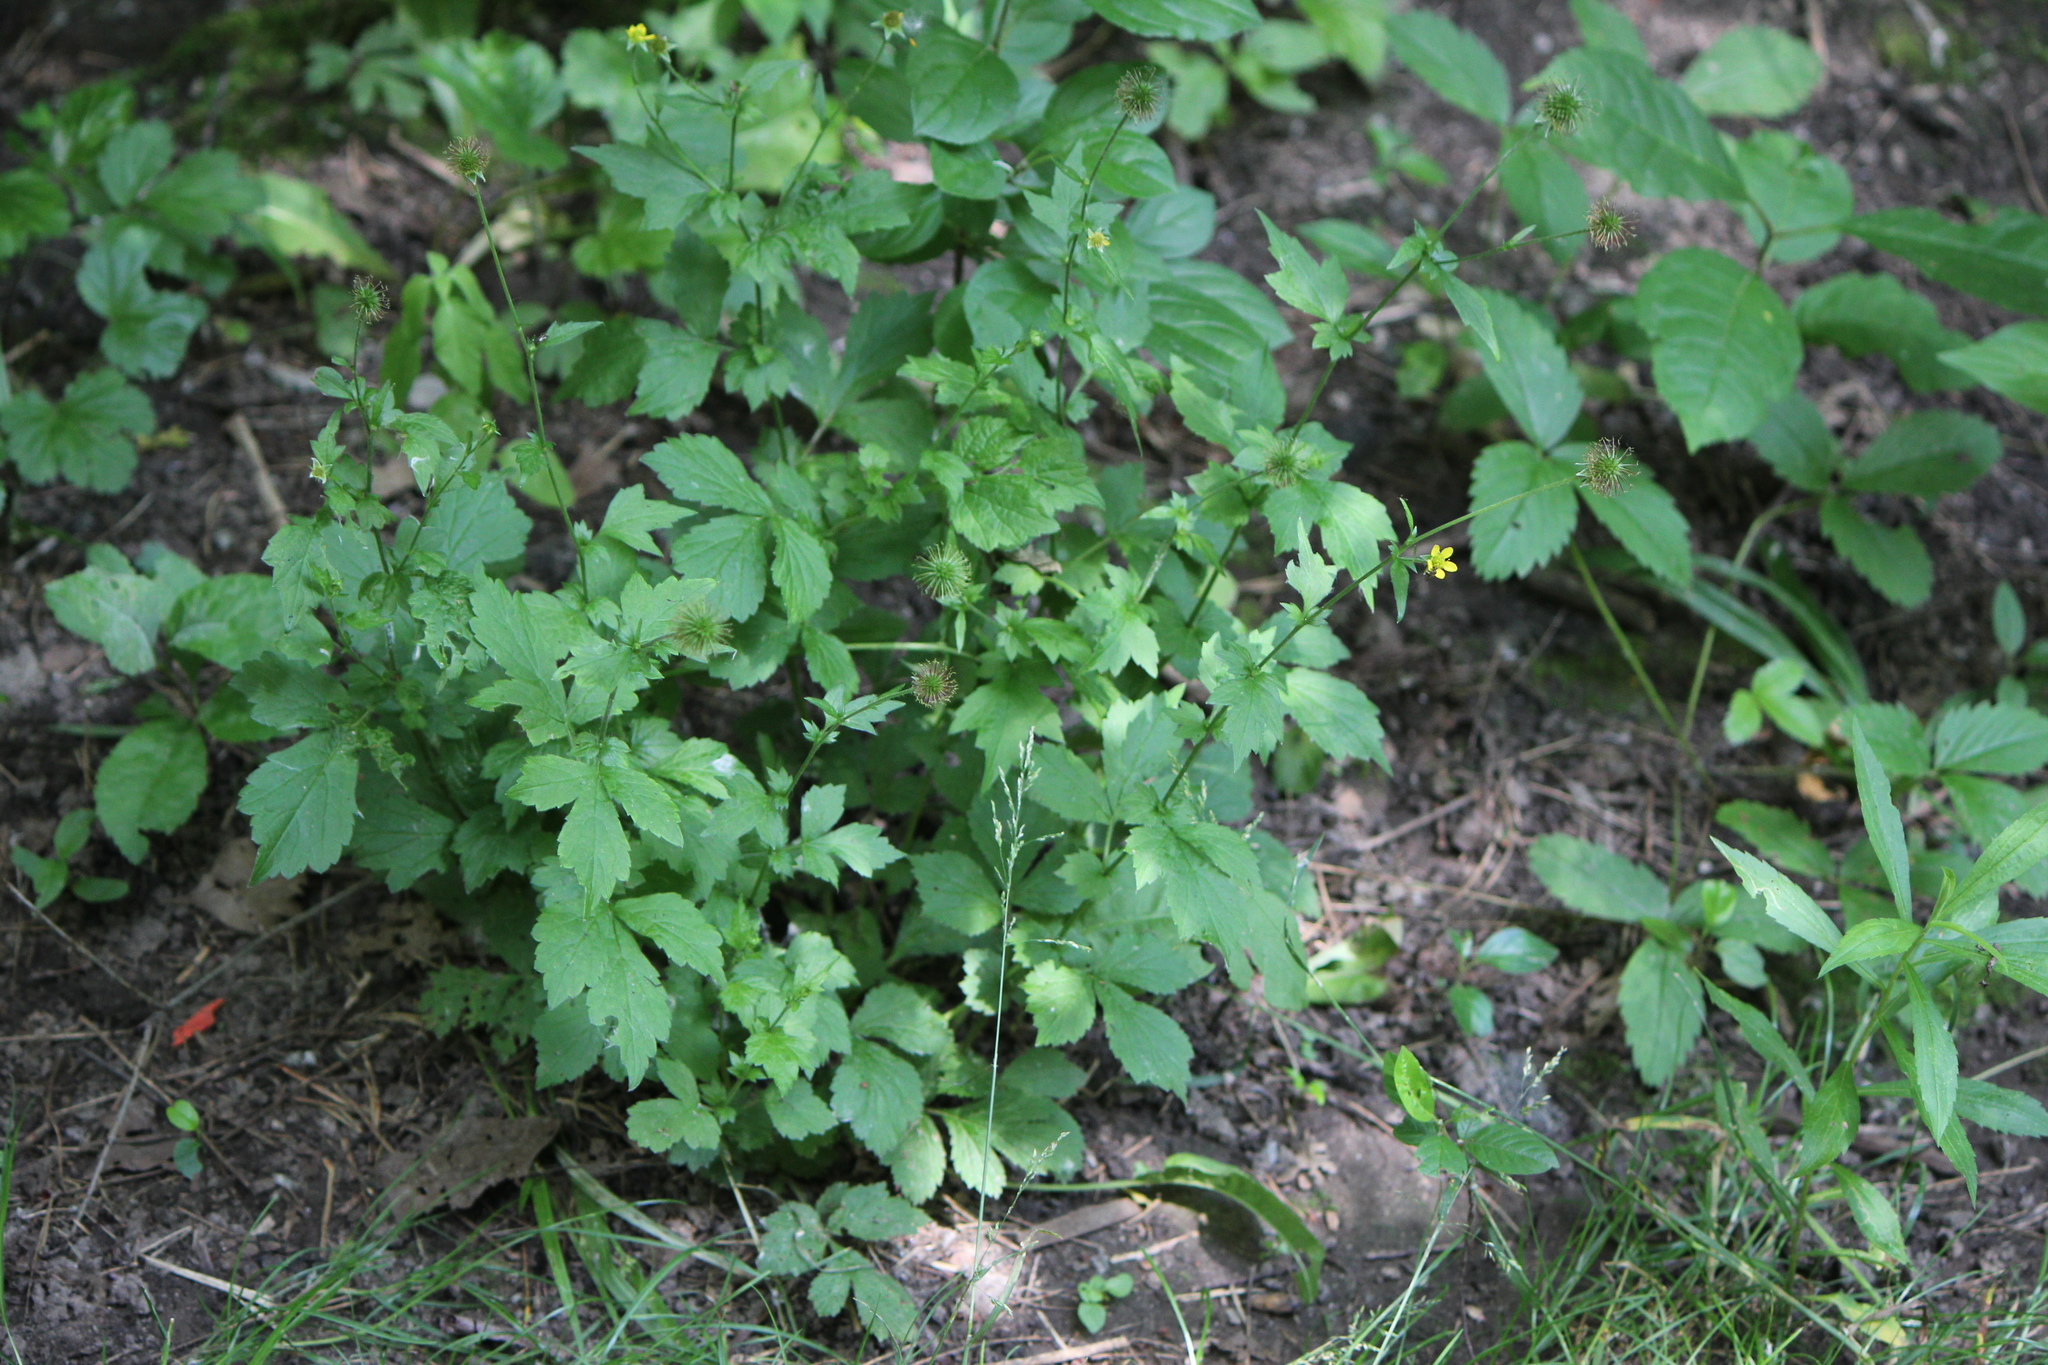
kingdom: Plantae
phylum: Tracheophyta
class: Magnoliopsida
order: Rosales
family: Rosaceae
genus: Geum
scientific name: Geum urbanum
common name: Wood avens
